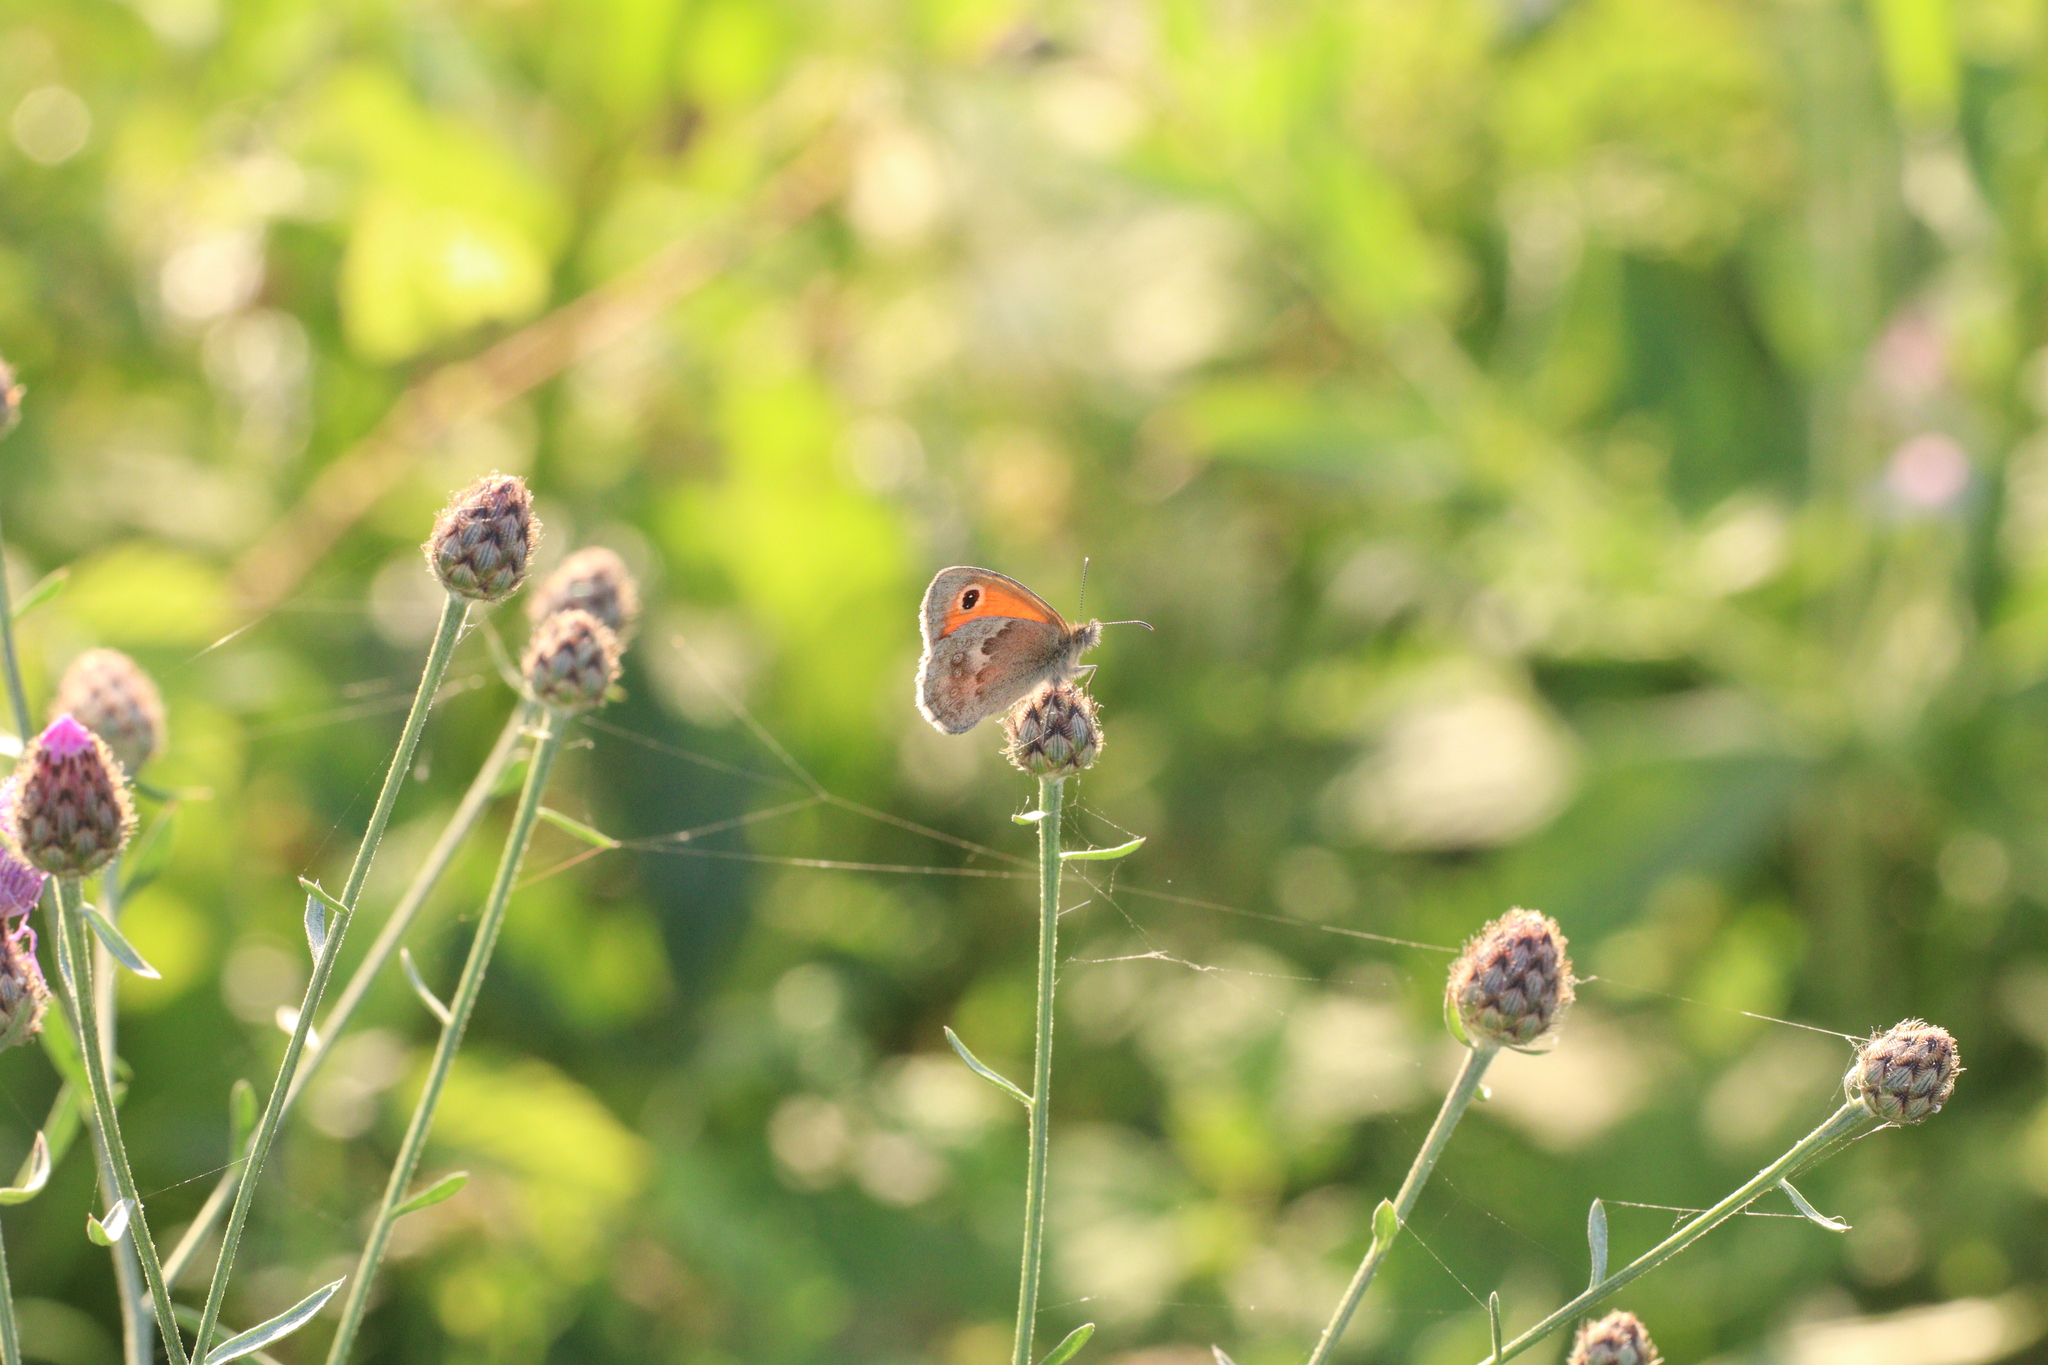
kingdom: Animalia
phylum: Arthropoda
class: Insecta
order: Lepidoptera
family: Nymphalidae
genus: Coenonympha
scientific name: Coenonympha pamphilus
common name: Small heath
